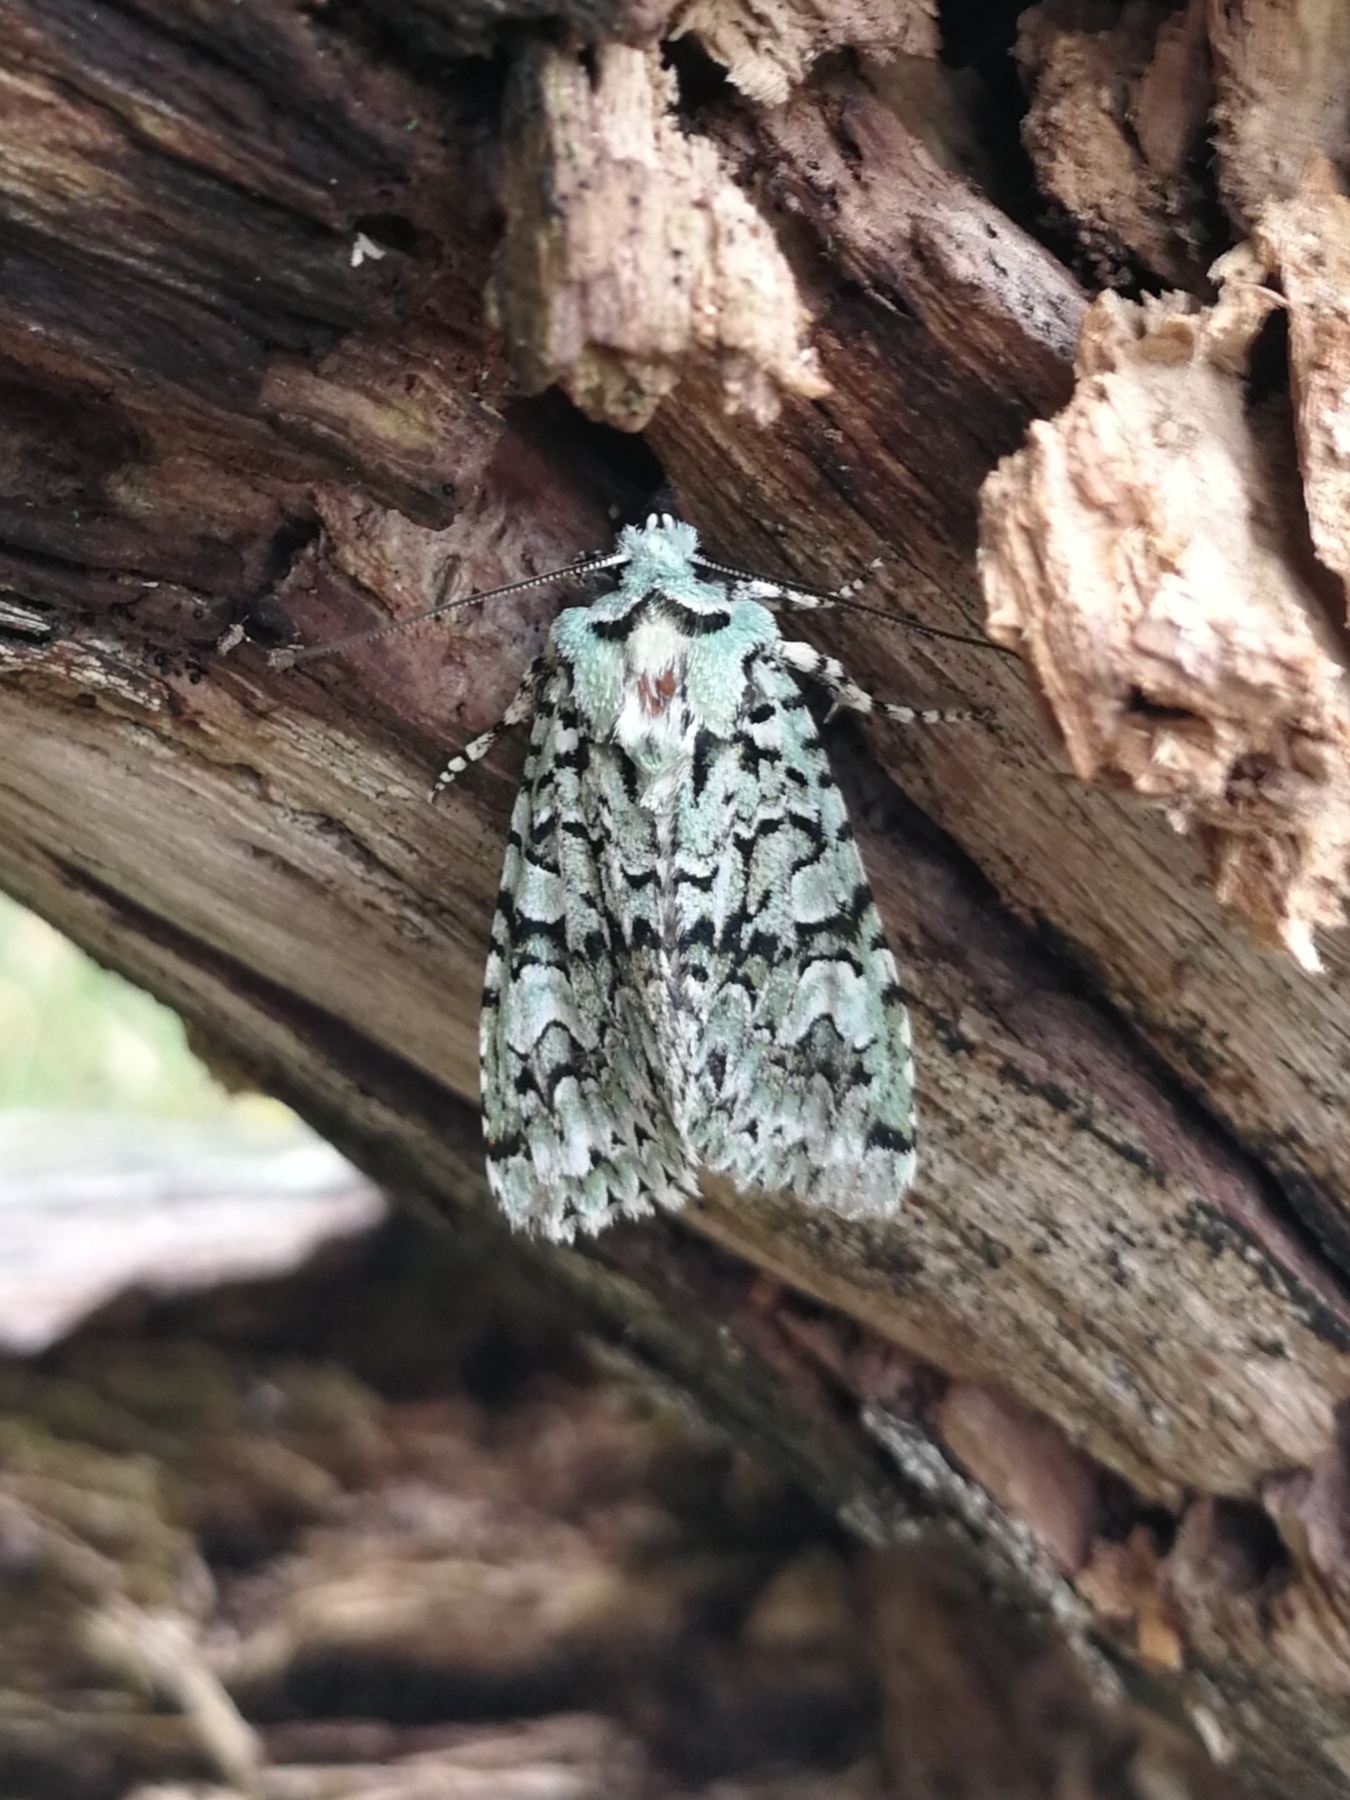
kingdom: Animalia
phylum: Arthropoda
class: Insecta
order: Lepidoptera
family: Noctuidae
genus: Griposia
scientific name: Griposia aprilina
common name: Merveille du jour
